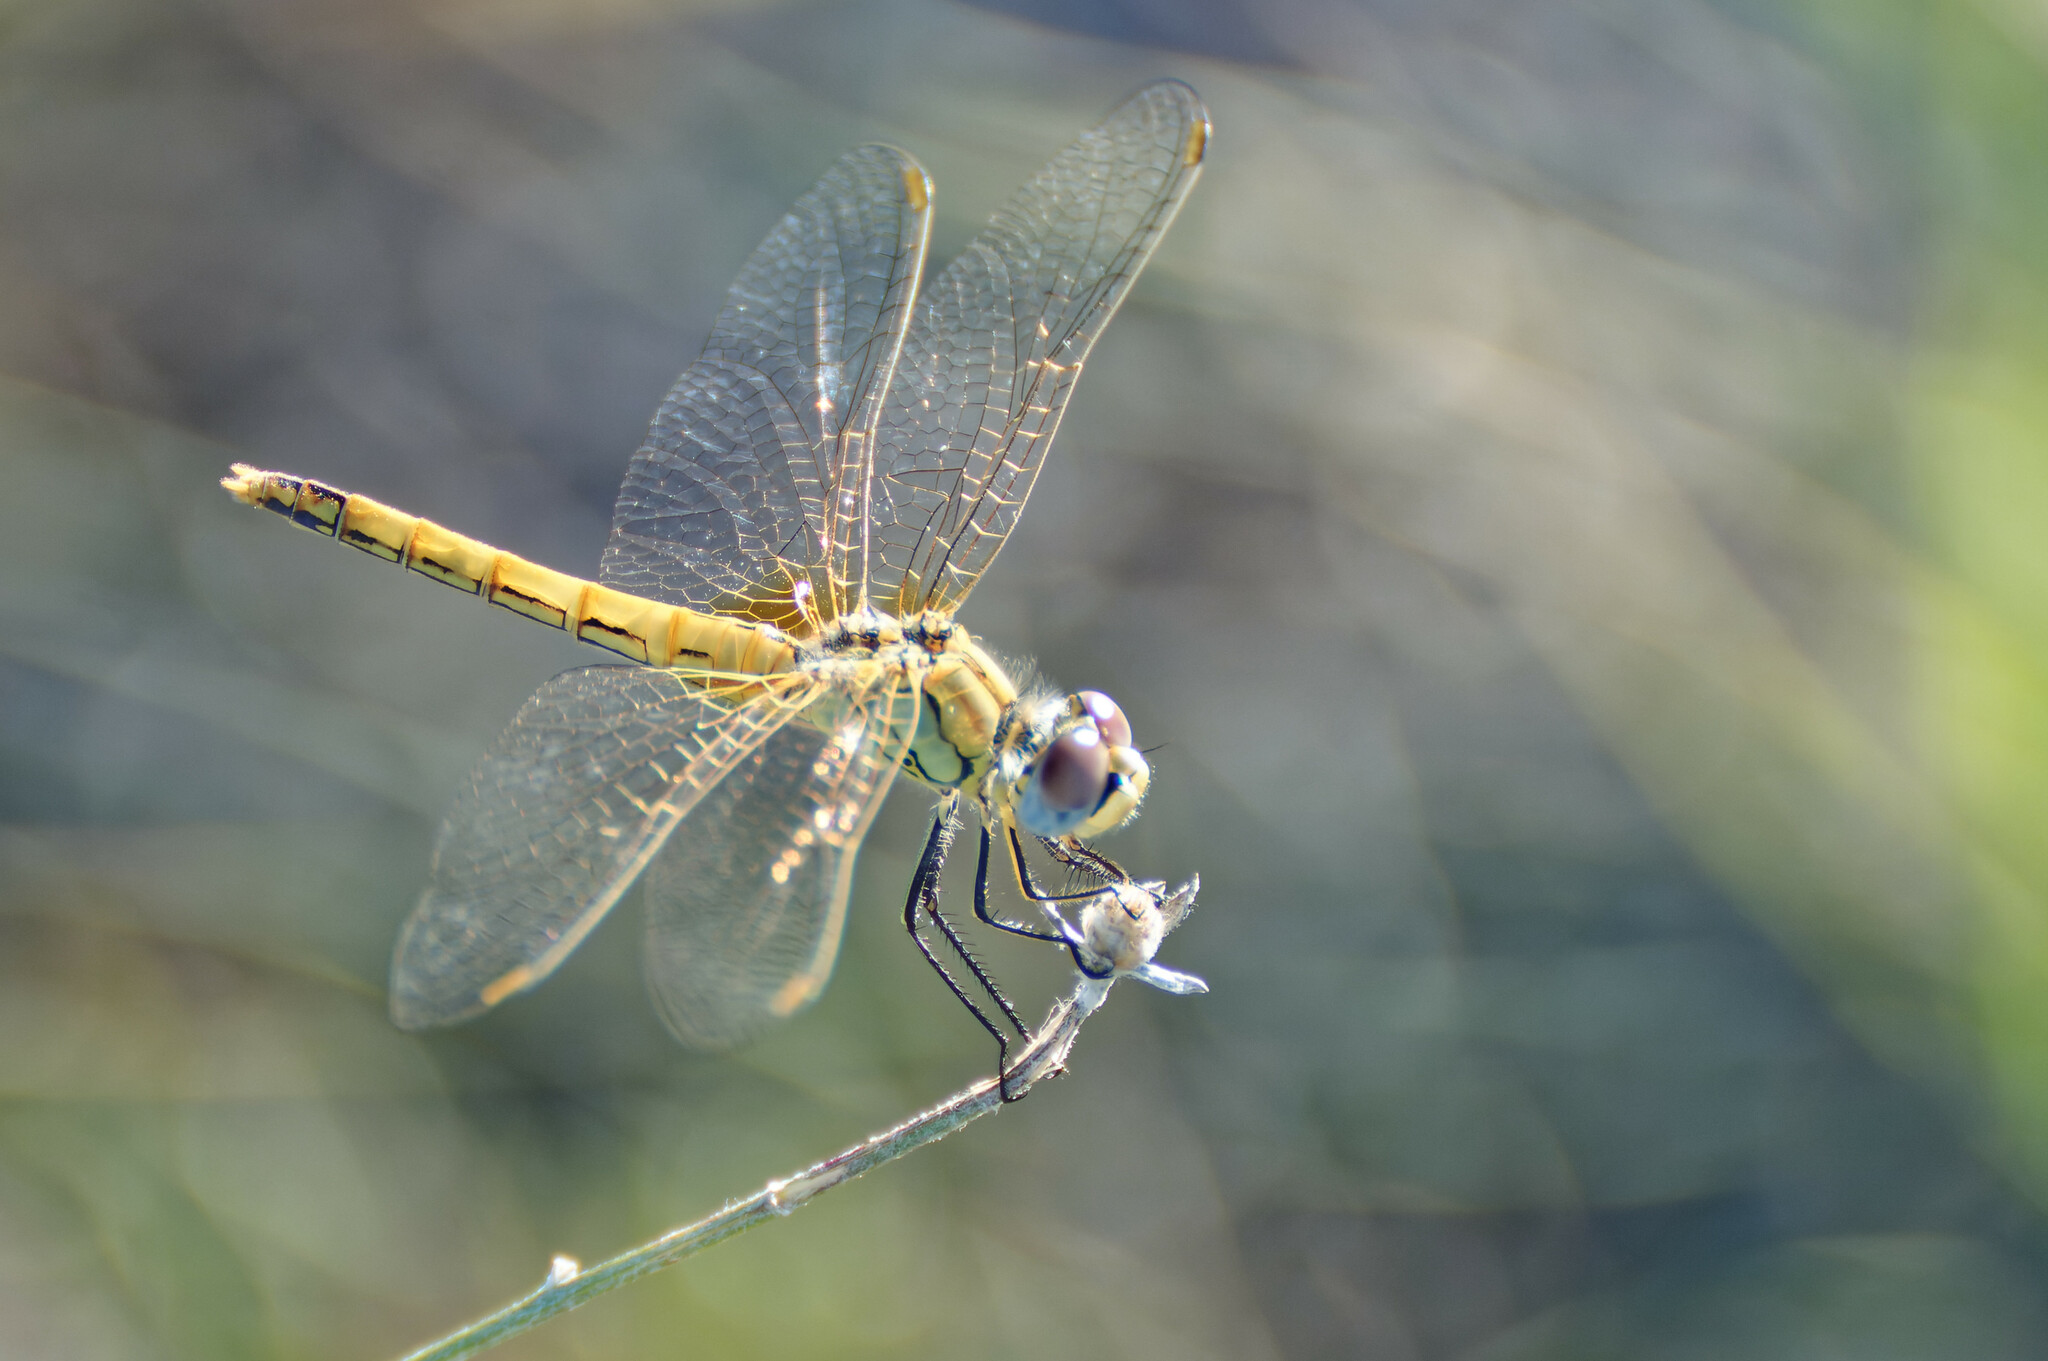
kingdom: Animalia
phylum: Arthropoda
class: Insecta
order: Odonata
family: Libellulidae
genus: Sympetrum
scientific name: Sympetrum fonscolombii
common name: Red-veined darter
